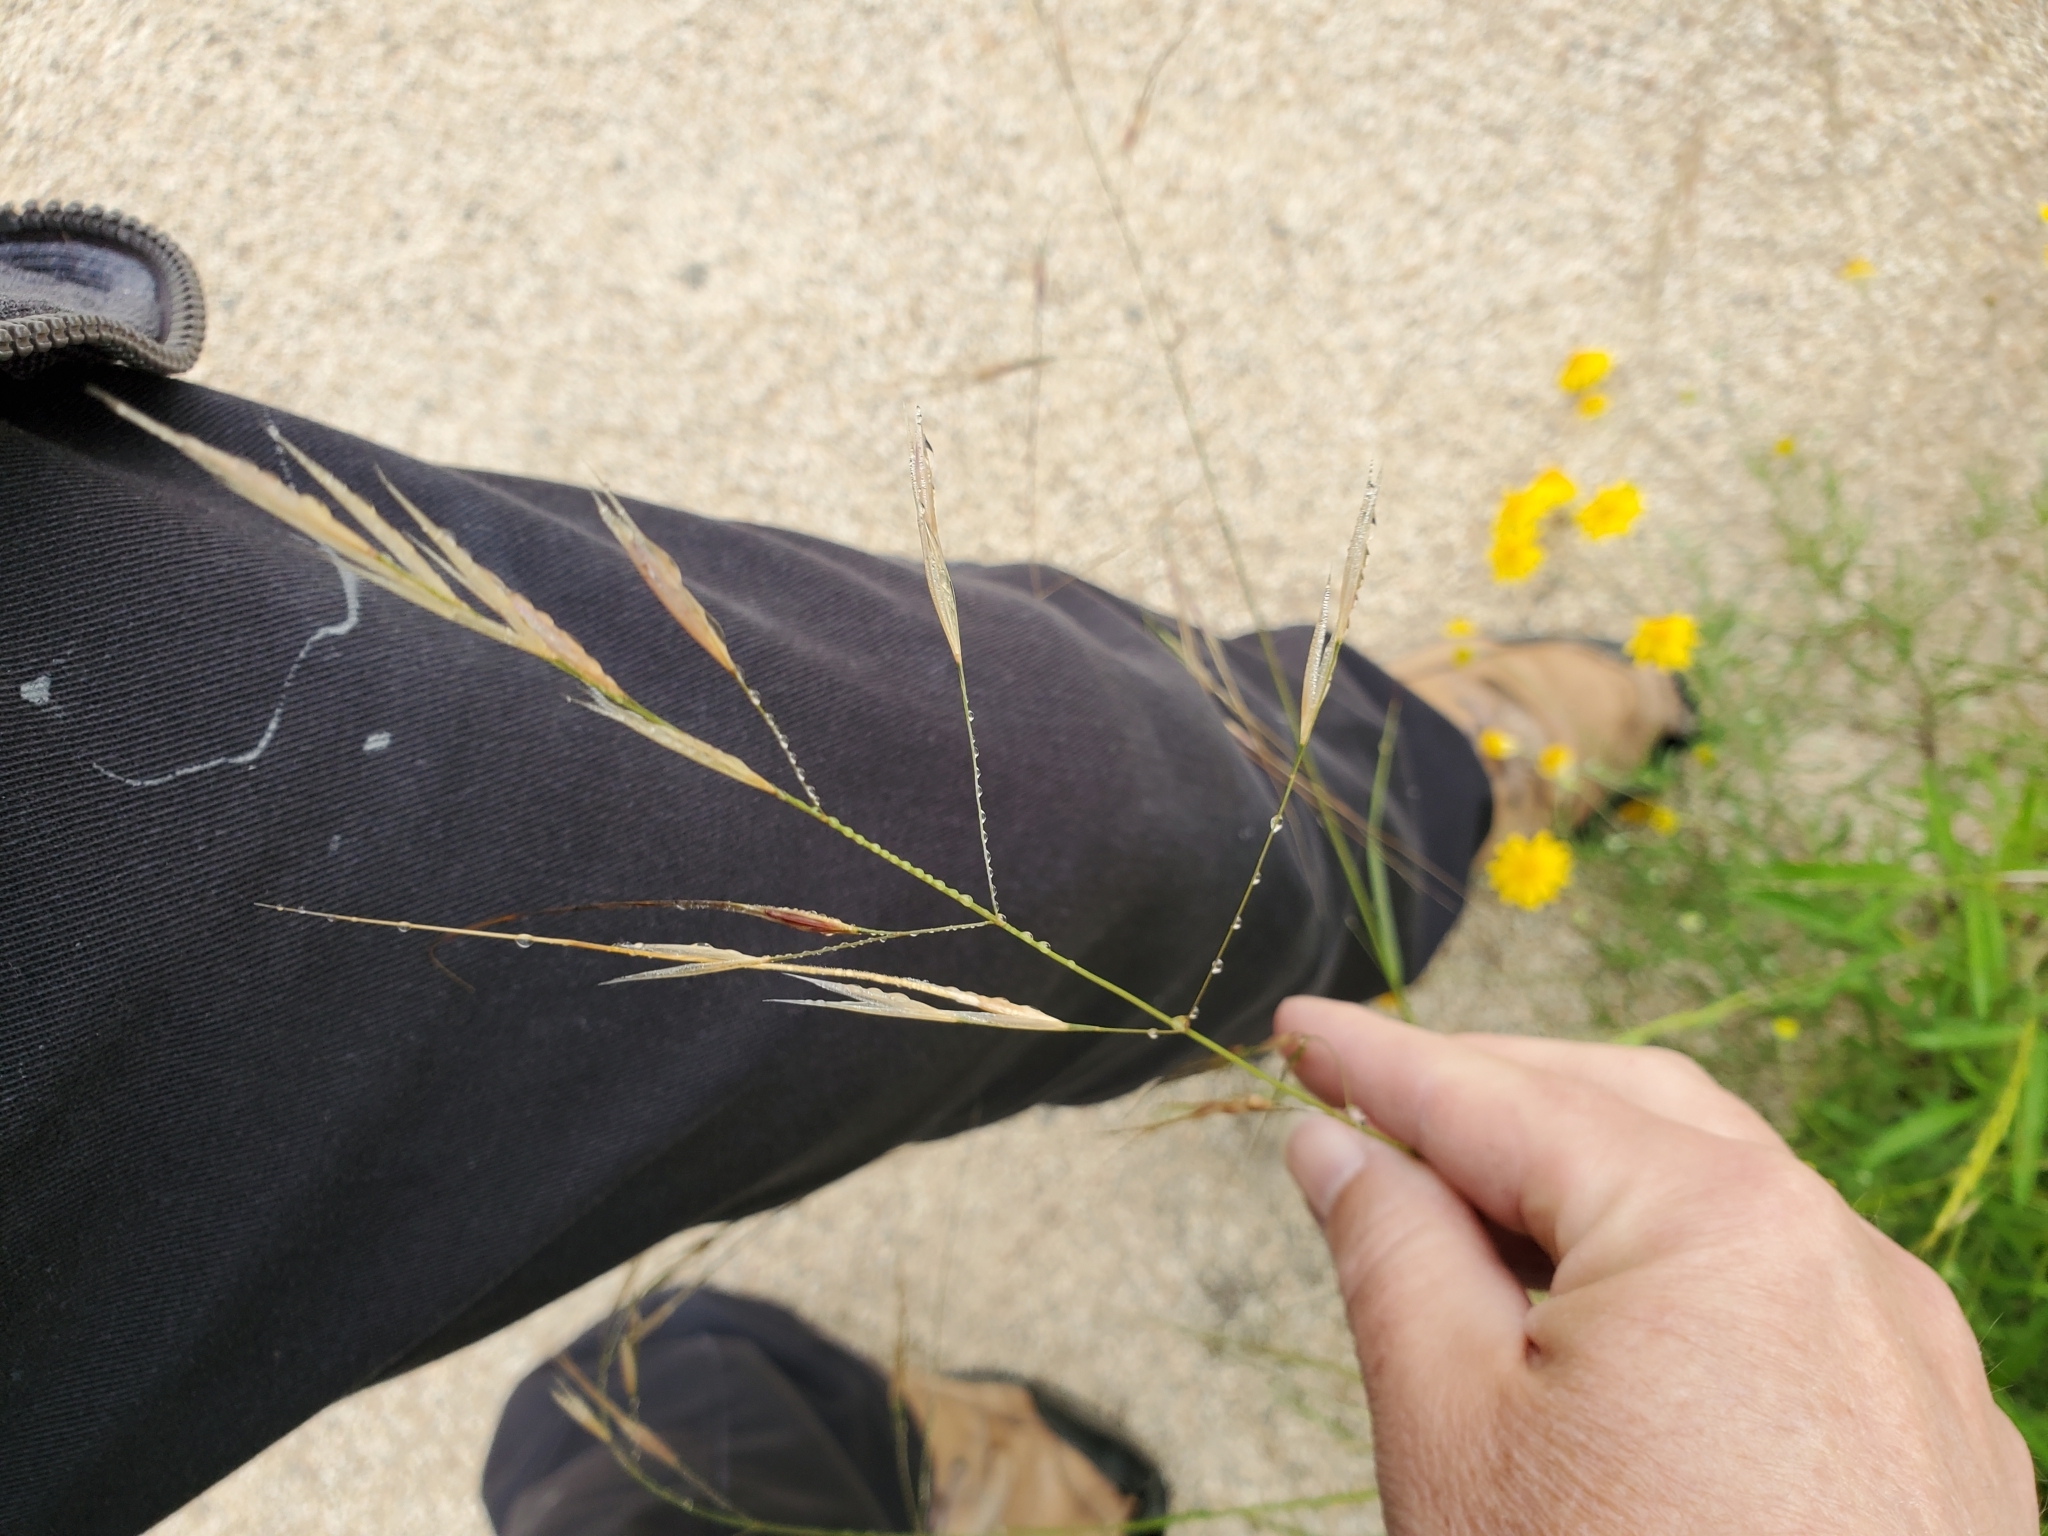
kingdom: Plantae
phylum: Tracheophyta
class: Liliopsida
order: Poales
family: Poaceae
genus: Nassella
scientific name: Nassella leucotricha
